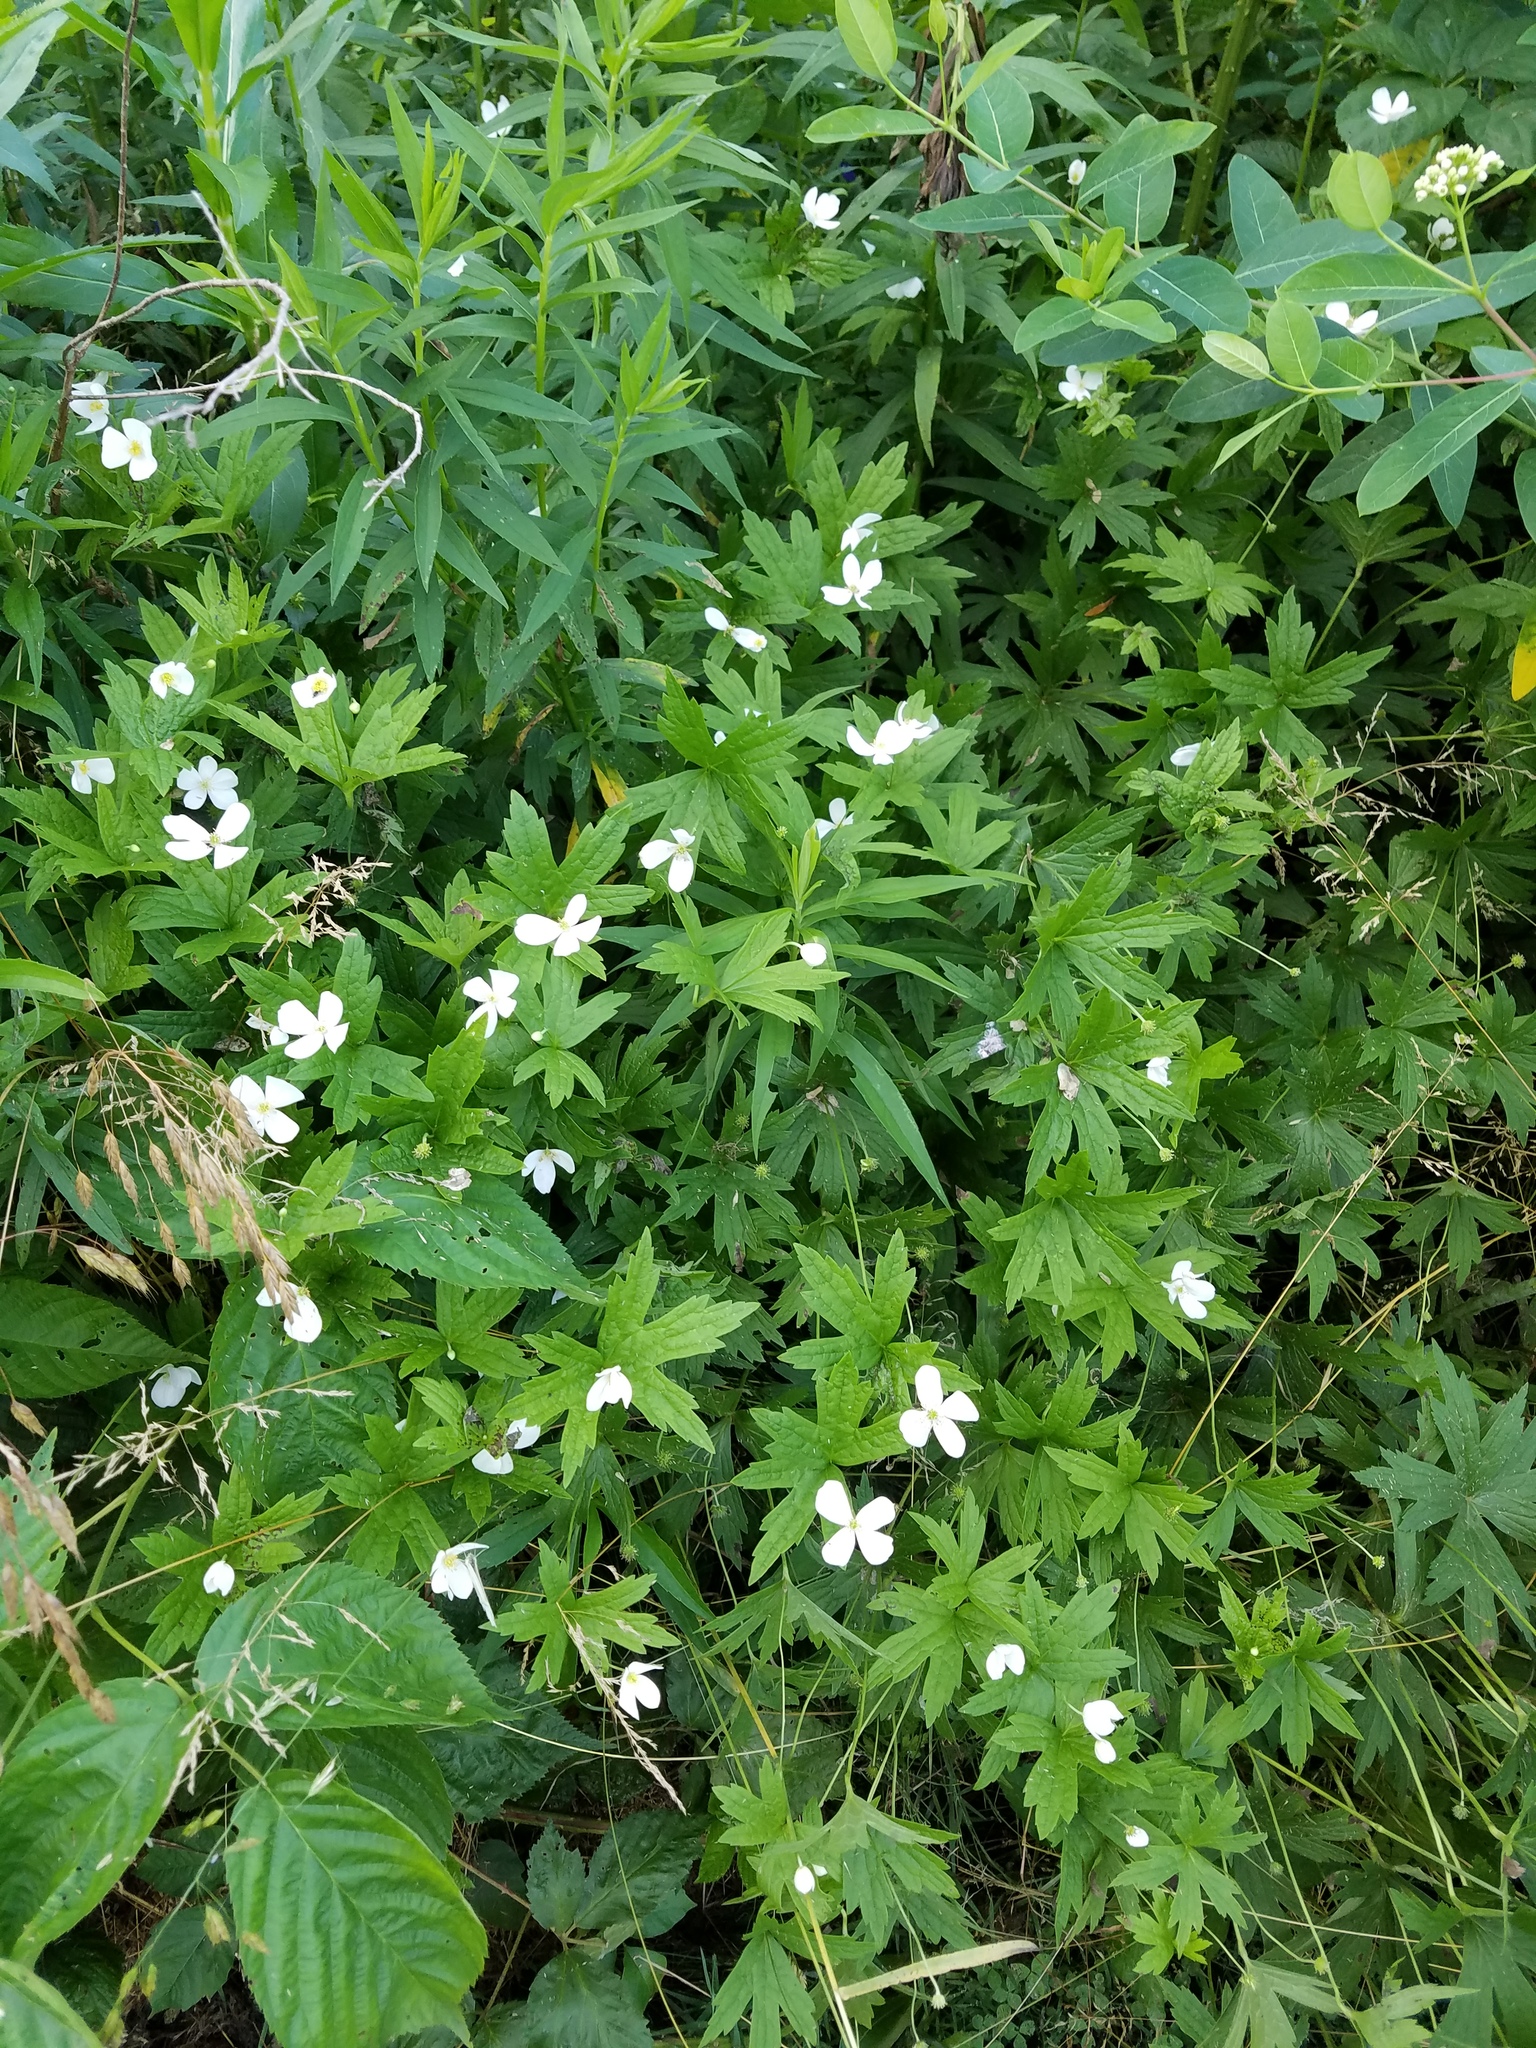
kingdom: Plantae
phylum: Tracheophyta
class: Magnoliopsida
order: Ranunculales
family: Ranunculaceae
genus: Anemonastrum
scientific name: Anemonastrum canadense
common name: Canada anemone
